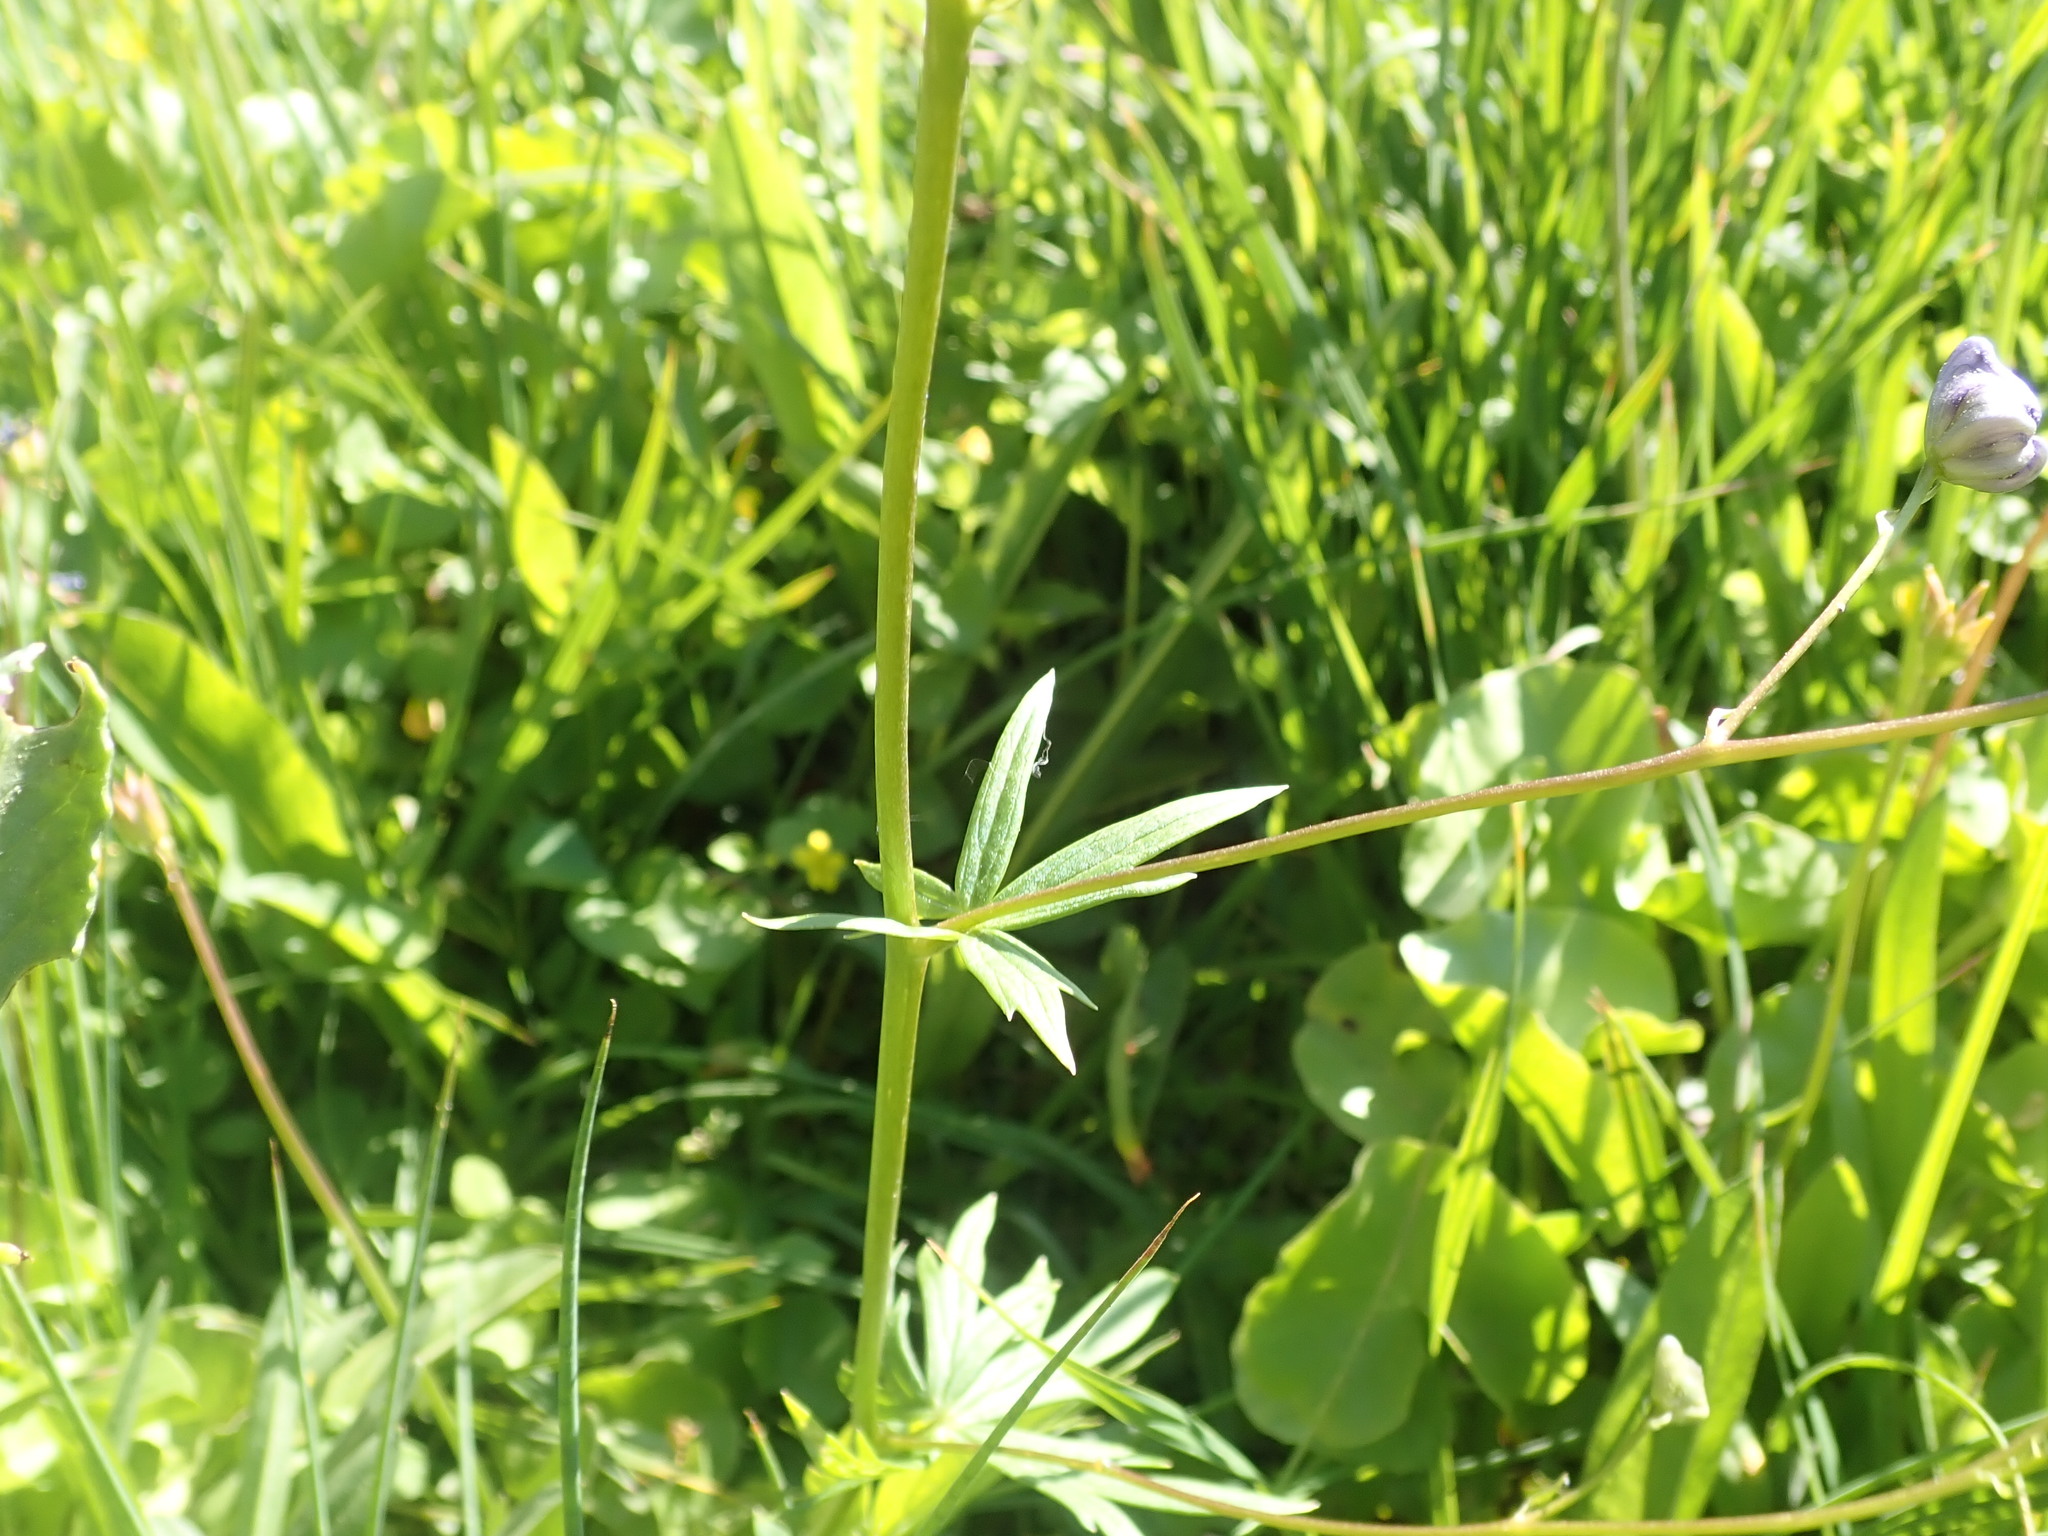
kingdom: Plantae
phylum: Tracheophyta
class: Magnoliopsida
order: Ranunculales
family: Ranunculaceae
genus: Aconitum
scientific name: Aconitum columbianum
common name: Columbia aconite
